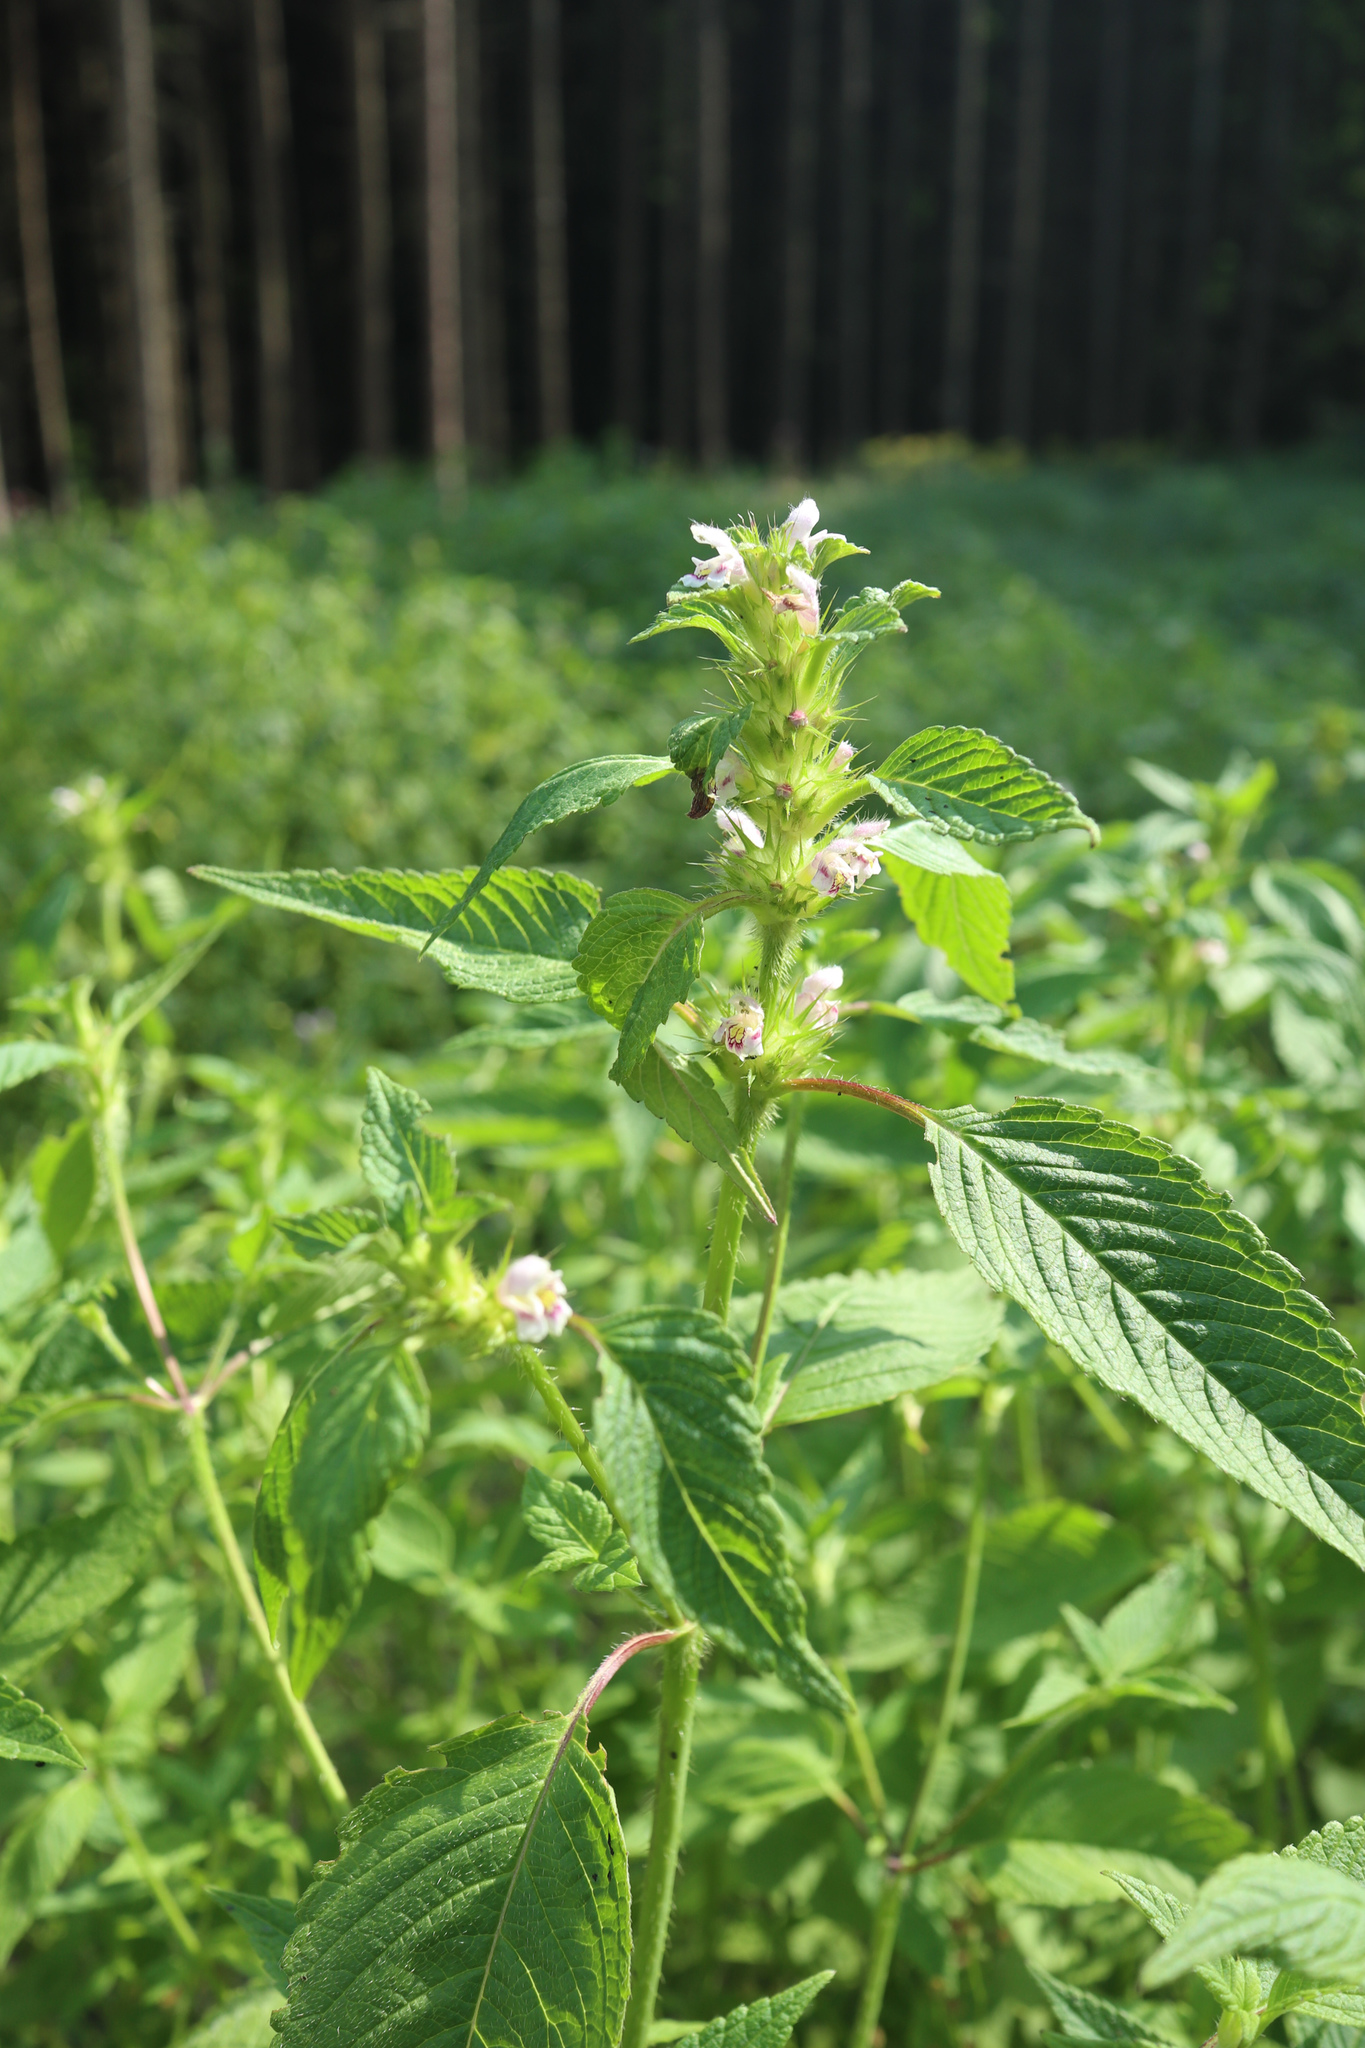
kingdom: Plantae
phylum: Tracheophyta
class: Magnoliopsida
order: Lamiales
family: Lamiaceae
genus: Galeopsis
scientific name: Galeopsis tetrahit
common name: Common hemp-nettle
